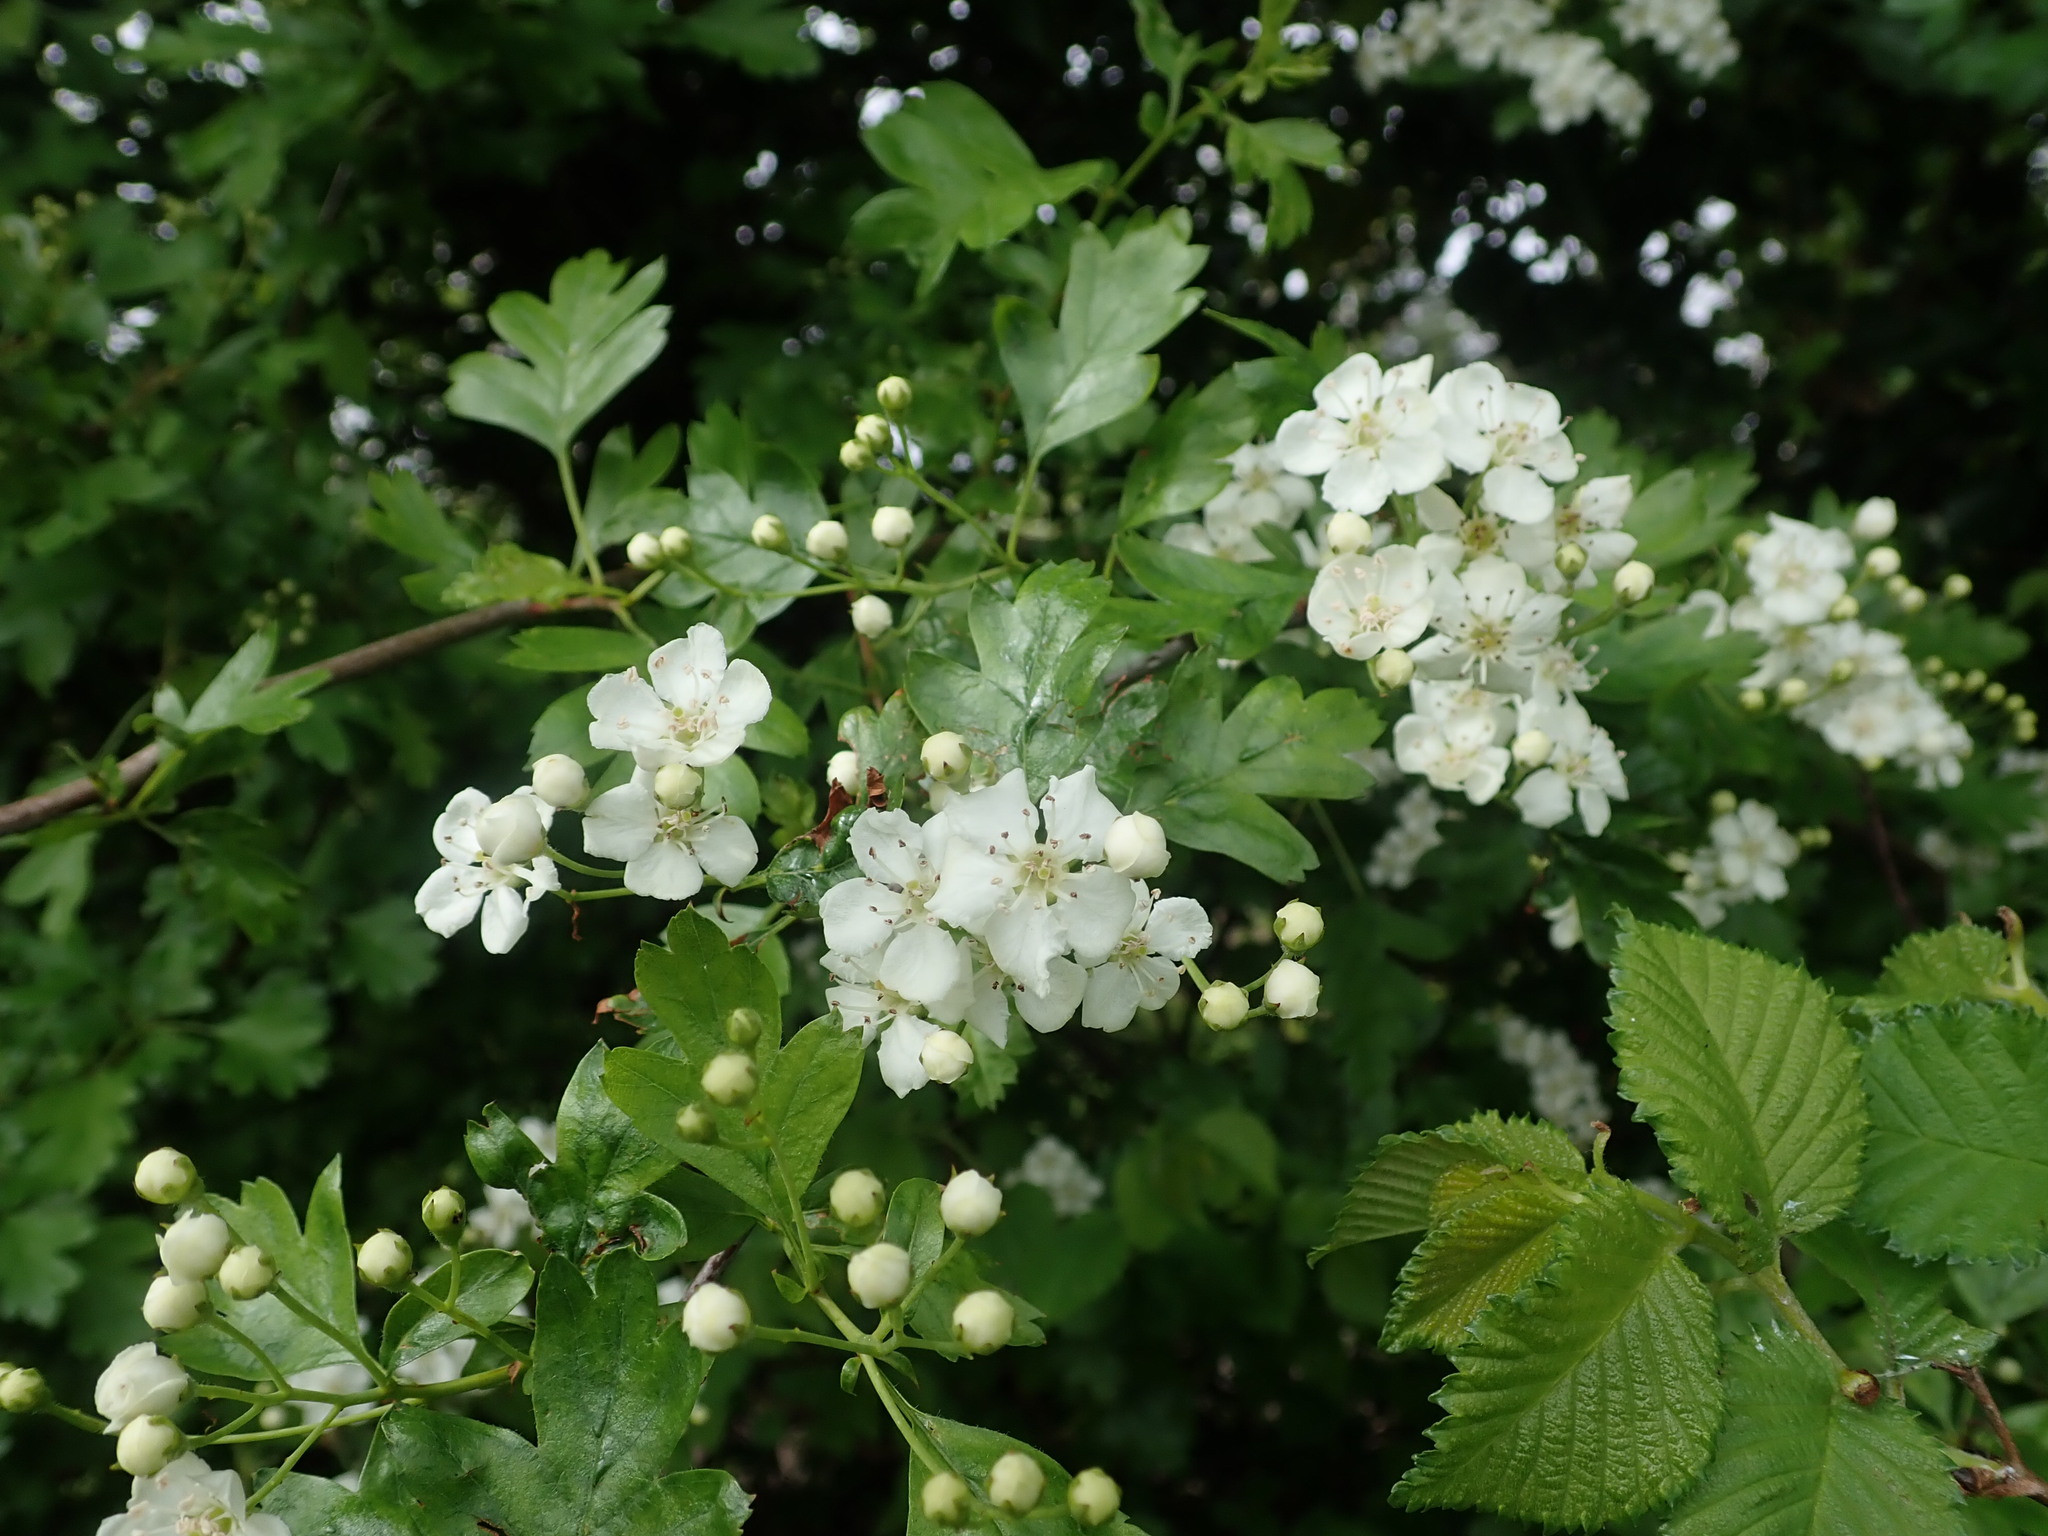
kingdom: Plantae
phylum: Tracheophyta
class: Magnoliopsida
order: Rosales
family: Rosaceae
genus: Crataegus
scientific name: Crataegus monogyna
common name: Hawthorn
